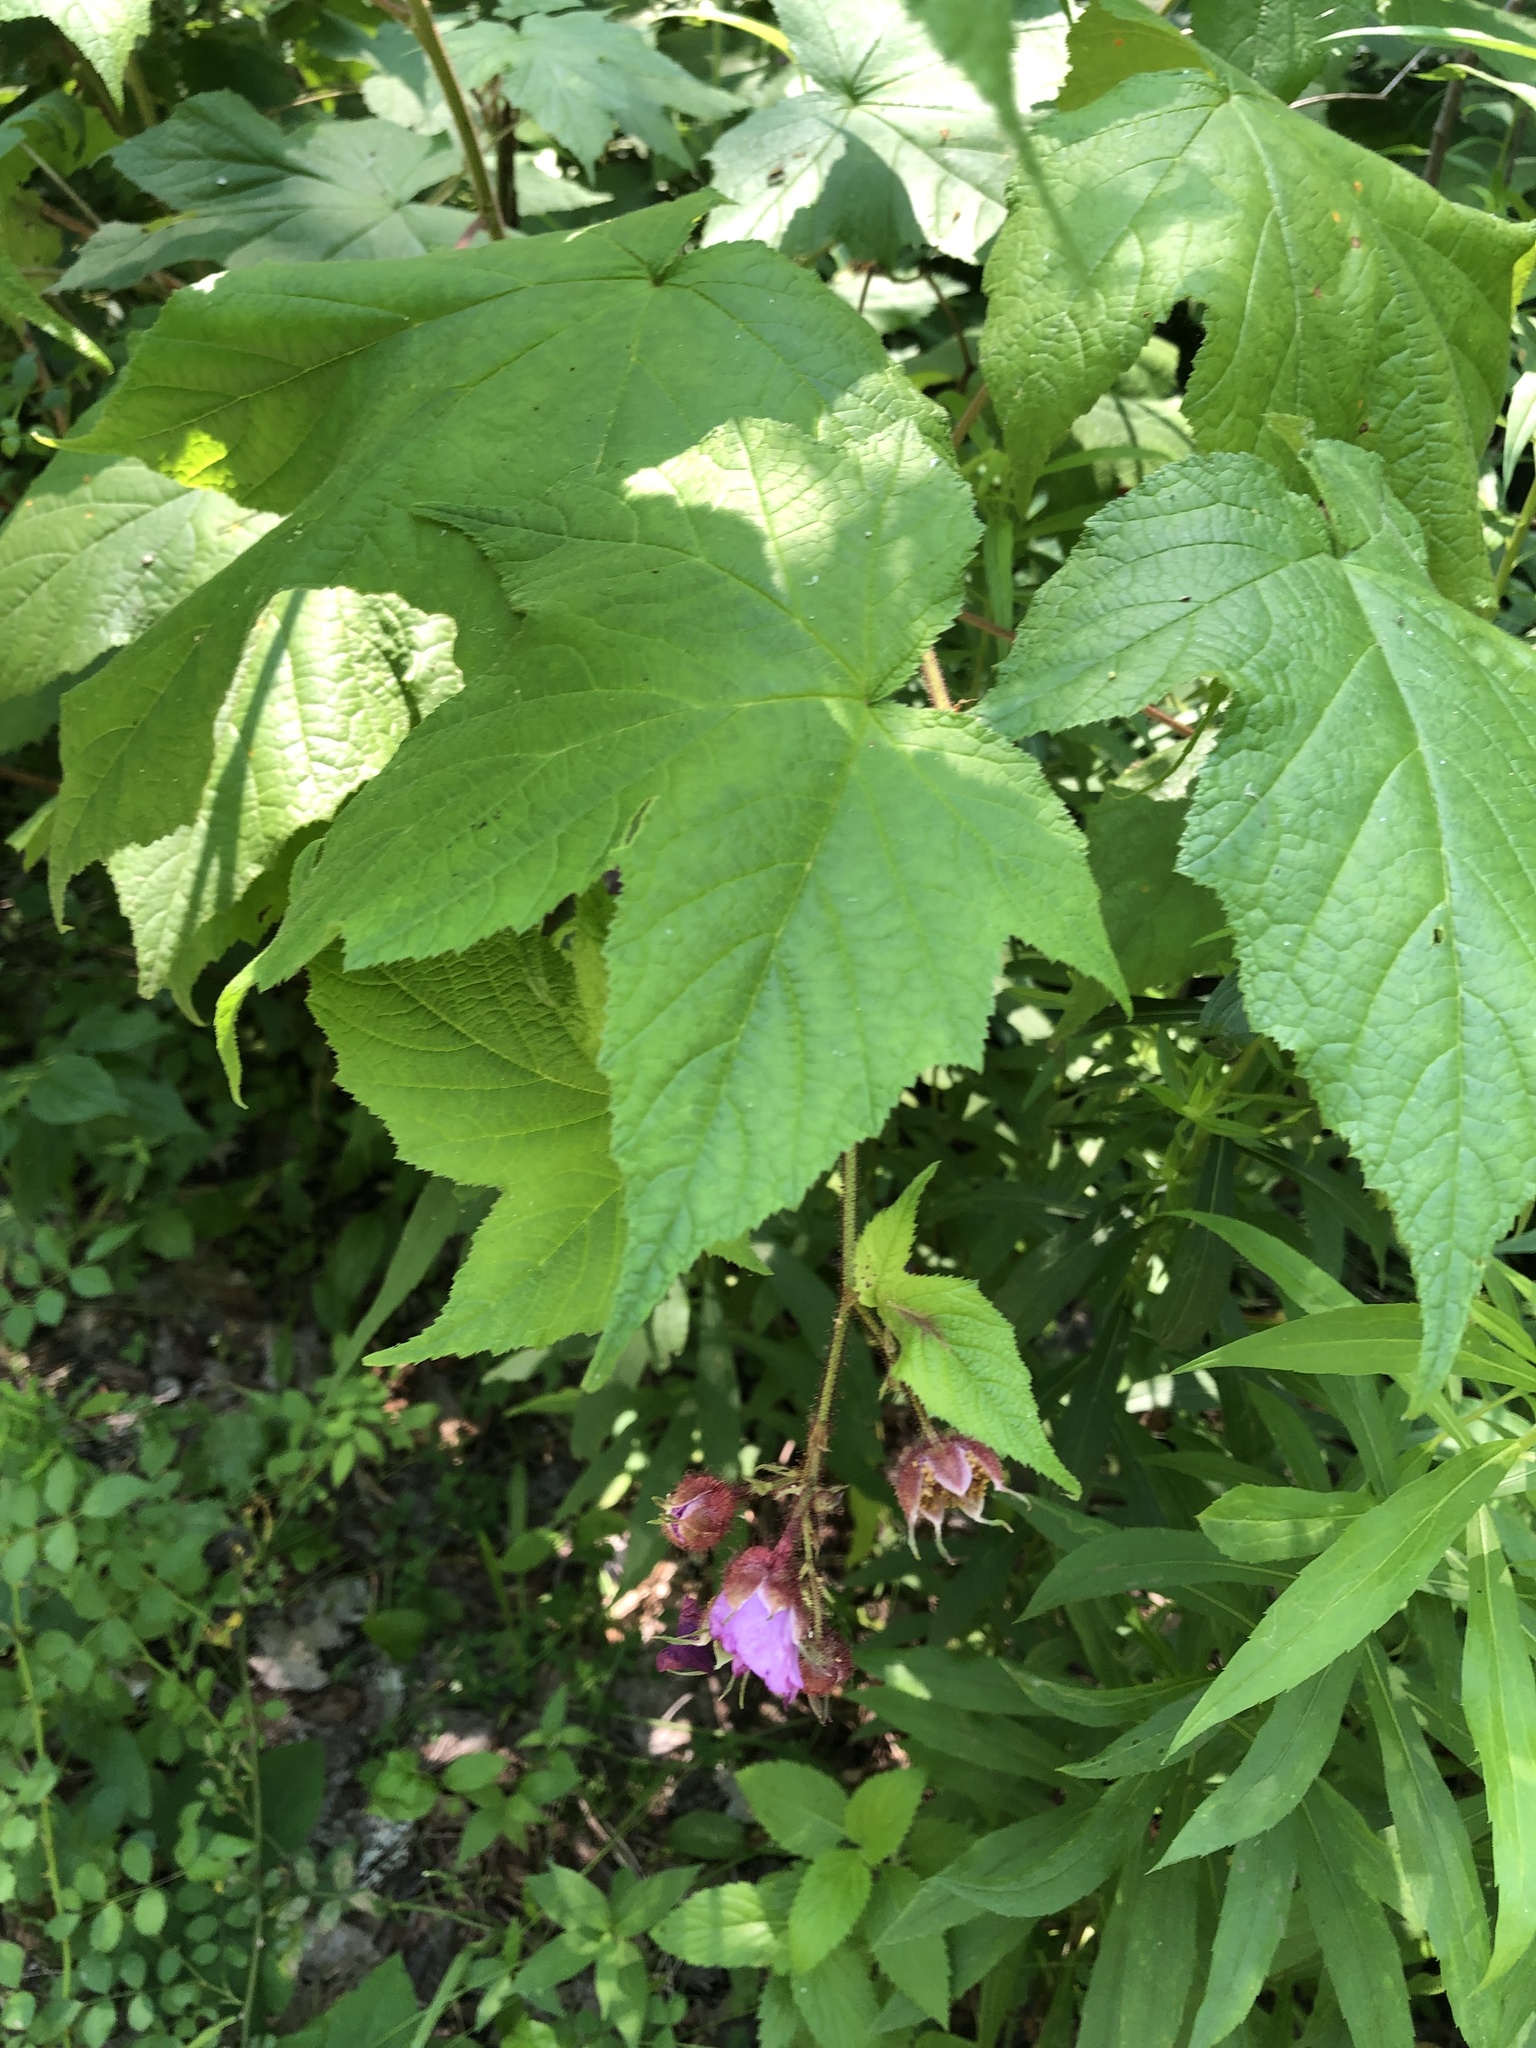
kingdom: Plantae
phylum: Tracheophyta
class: Magnoliopsida
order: Rosales
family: Rosaceae
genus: Rubus
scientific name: Rubus odoratus
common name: Purple-flowered raspberry
